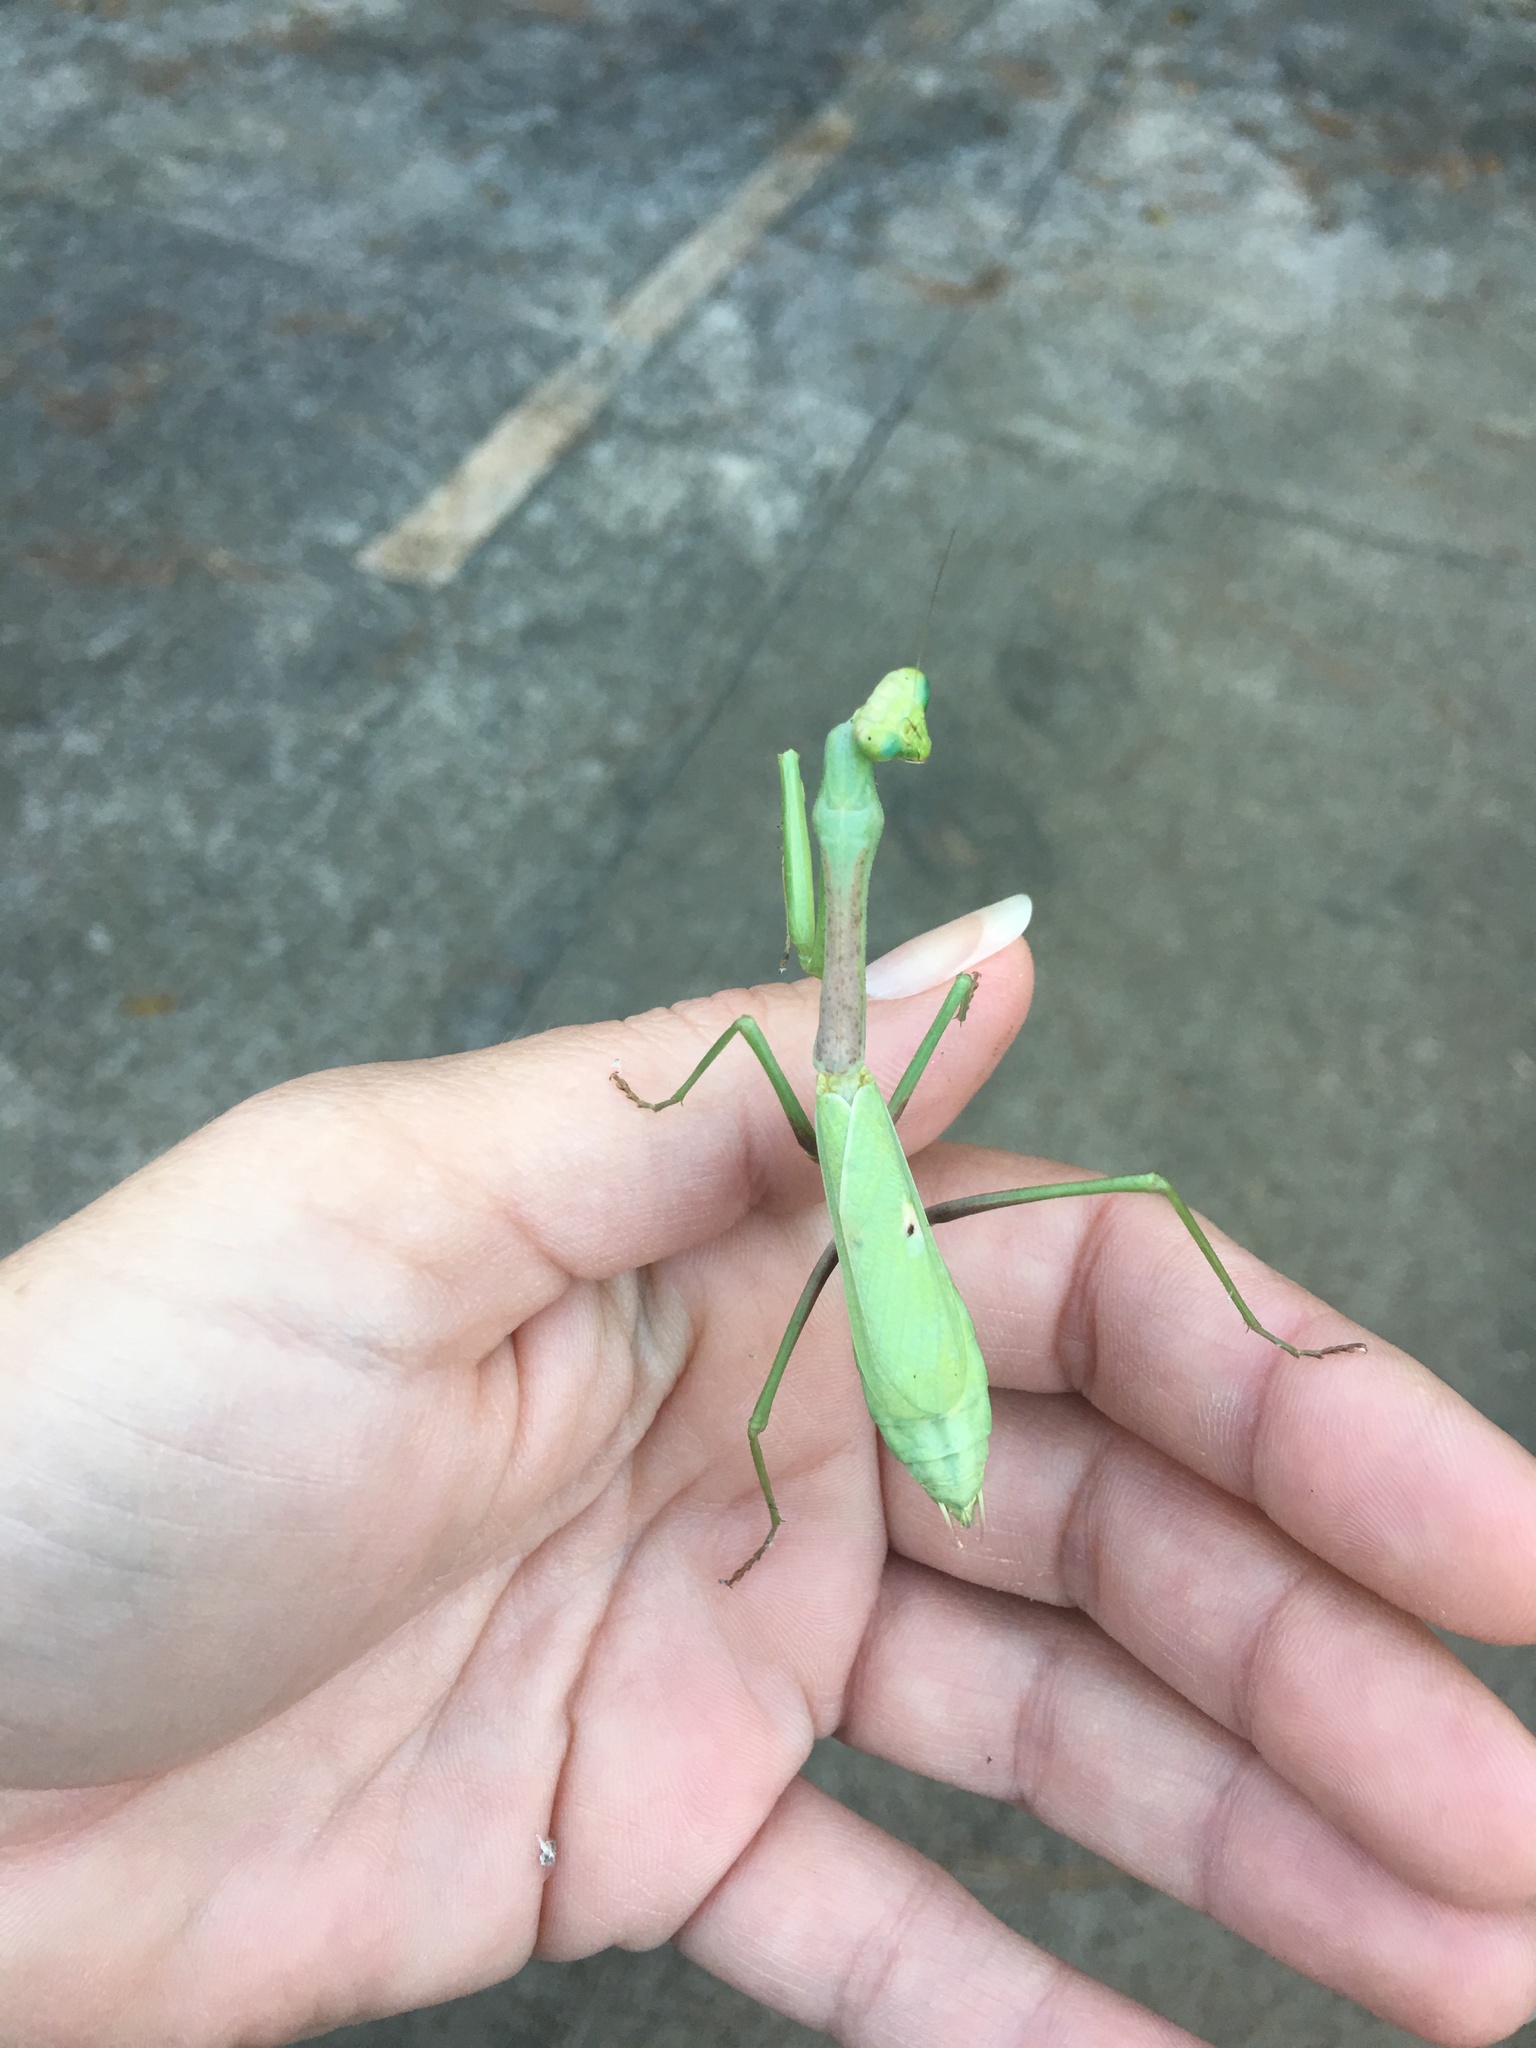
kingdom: Animalia
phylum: Arthropoda
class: Insecta
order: Mantodea
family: Mantidae
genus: Stagmomantis
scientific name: Stagmomantis carolina
